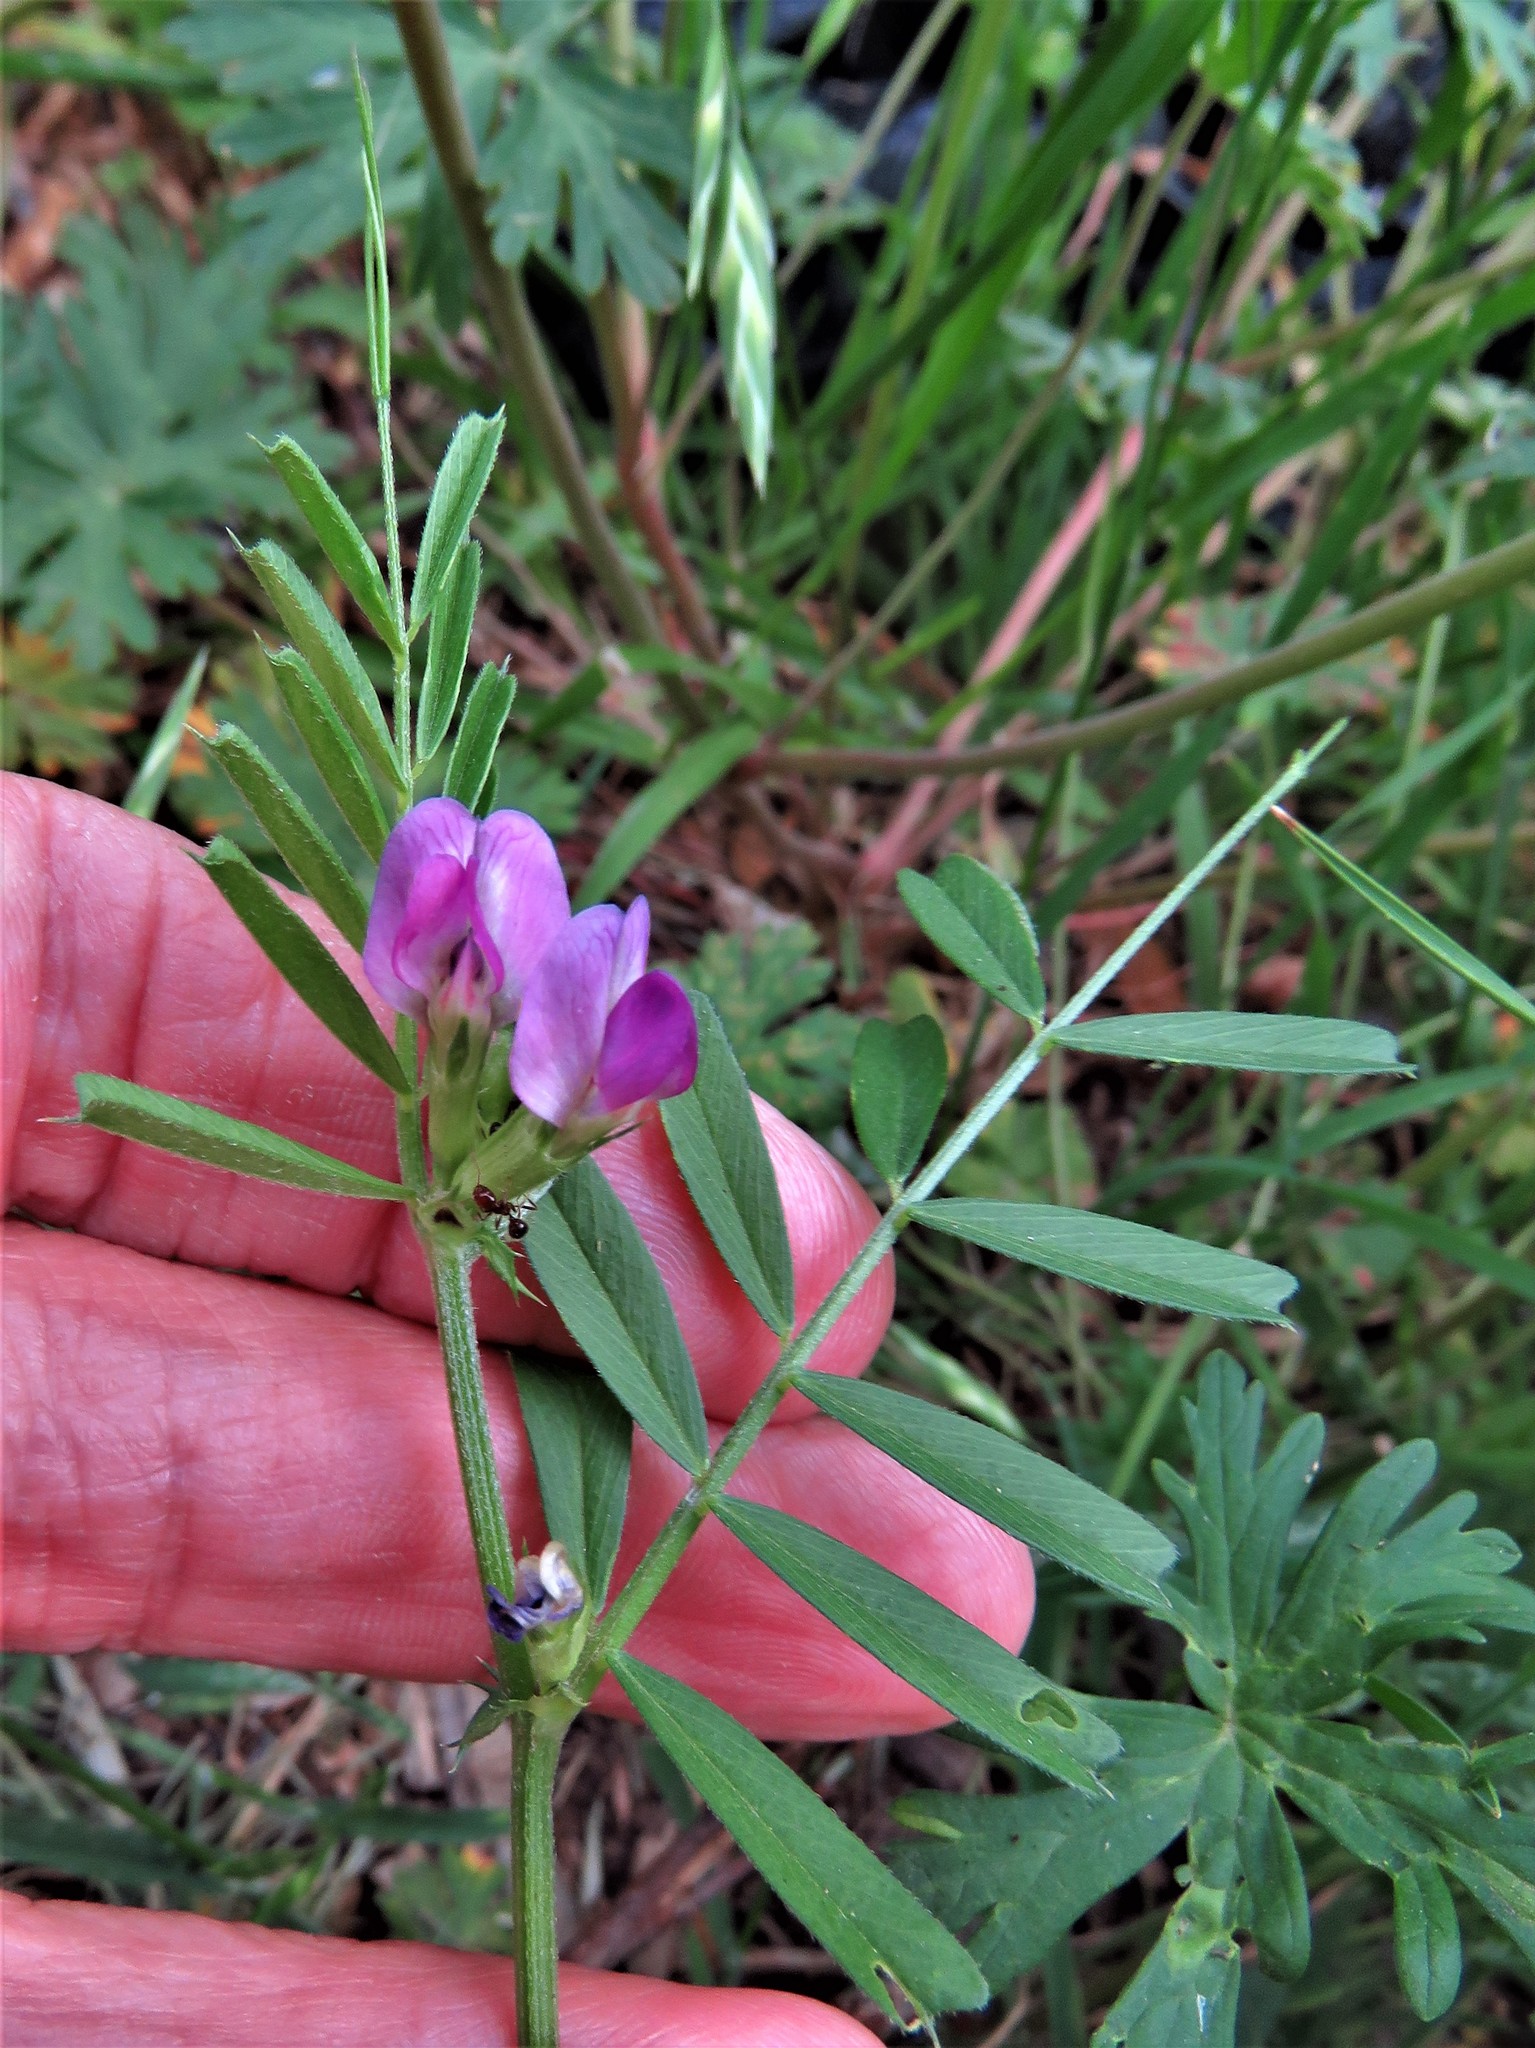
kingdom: Plantae
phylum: Tracheophyta
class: Magnoliopsida
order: Fabales
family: Fabaceae
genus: Vicia
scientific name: Vicia sativa
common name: Garden vetch
